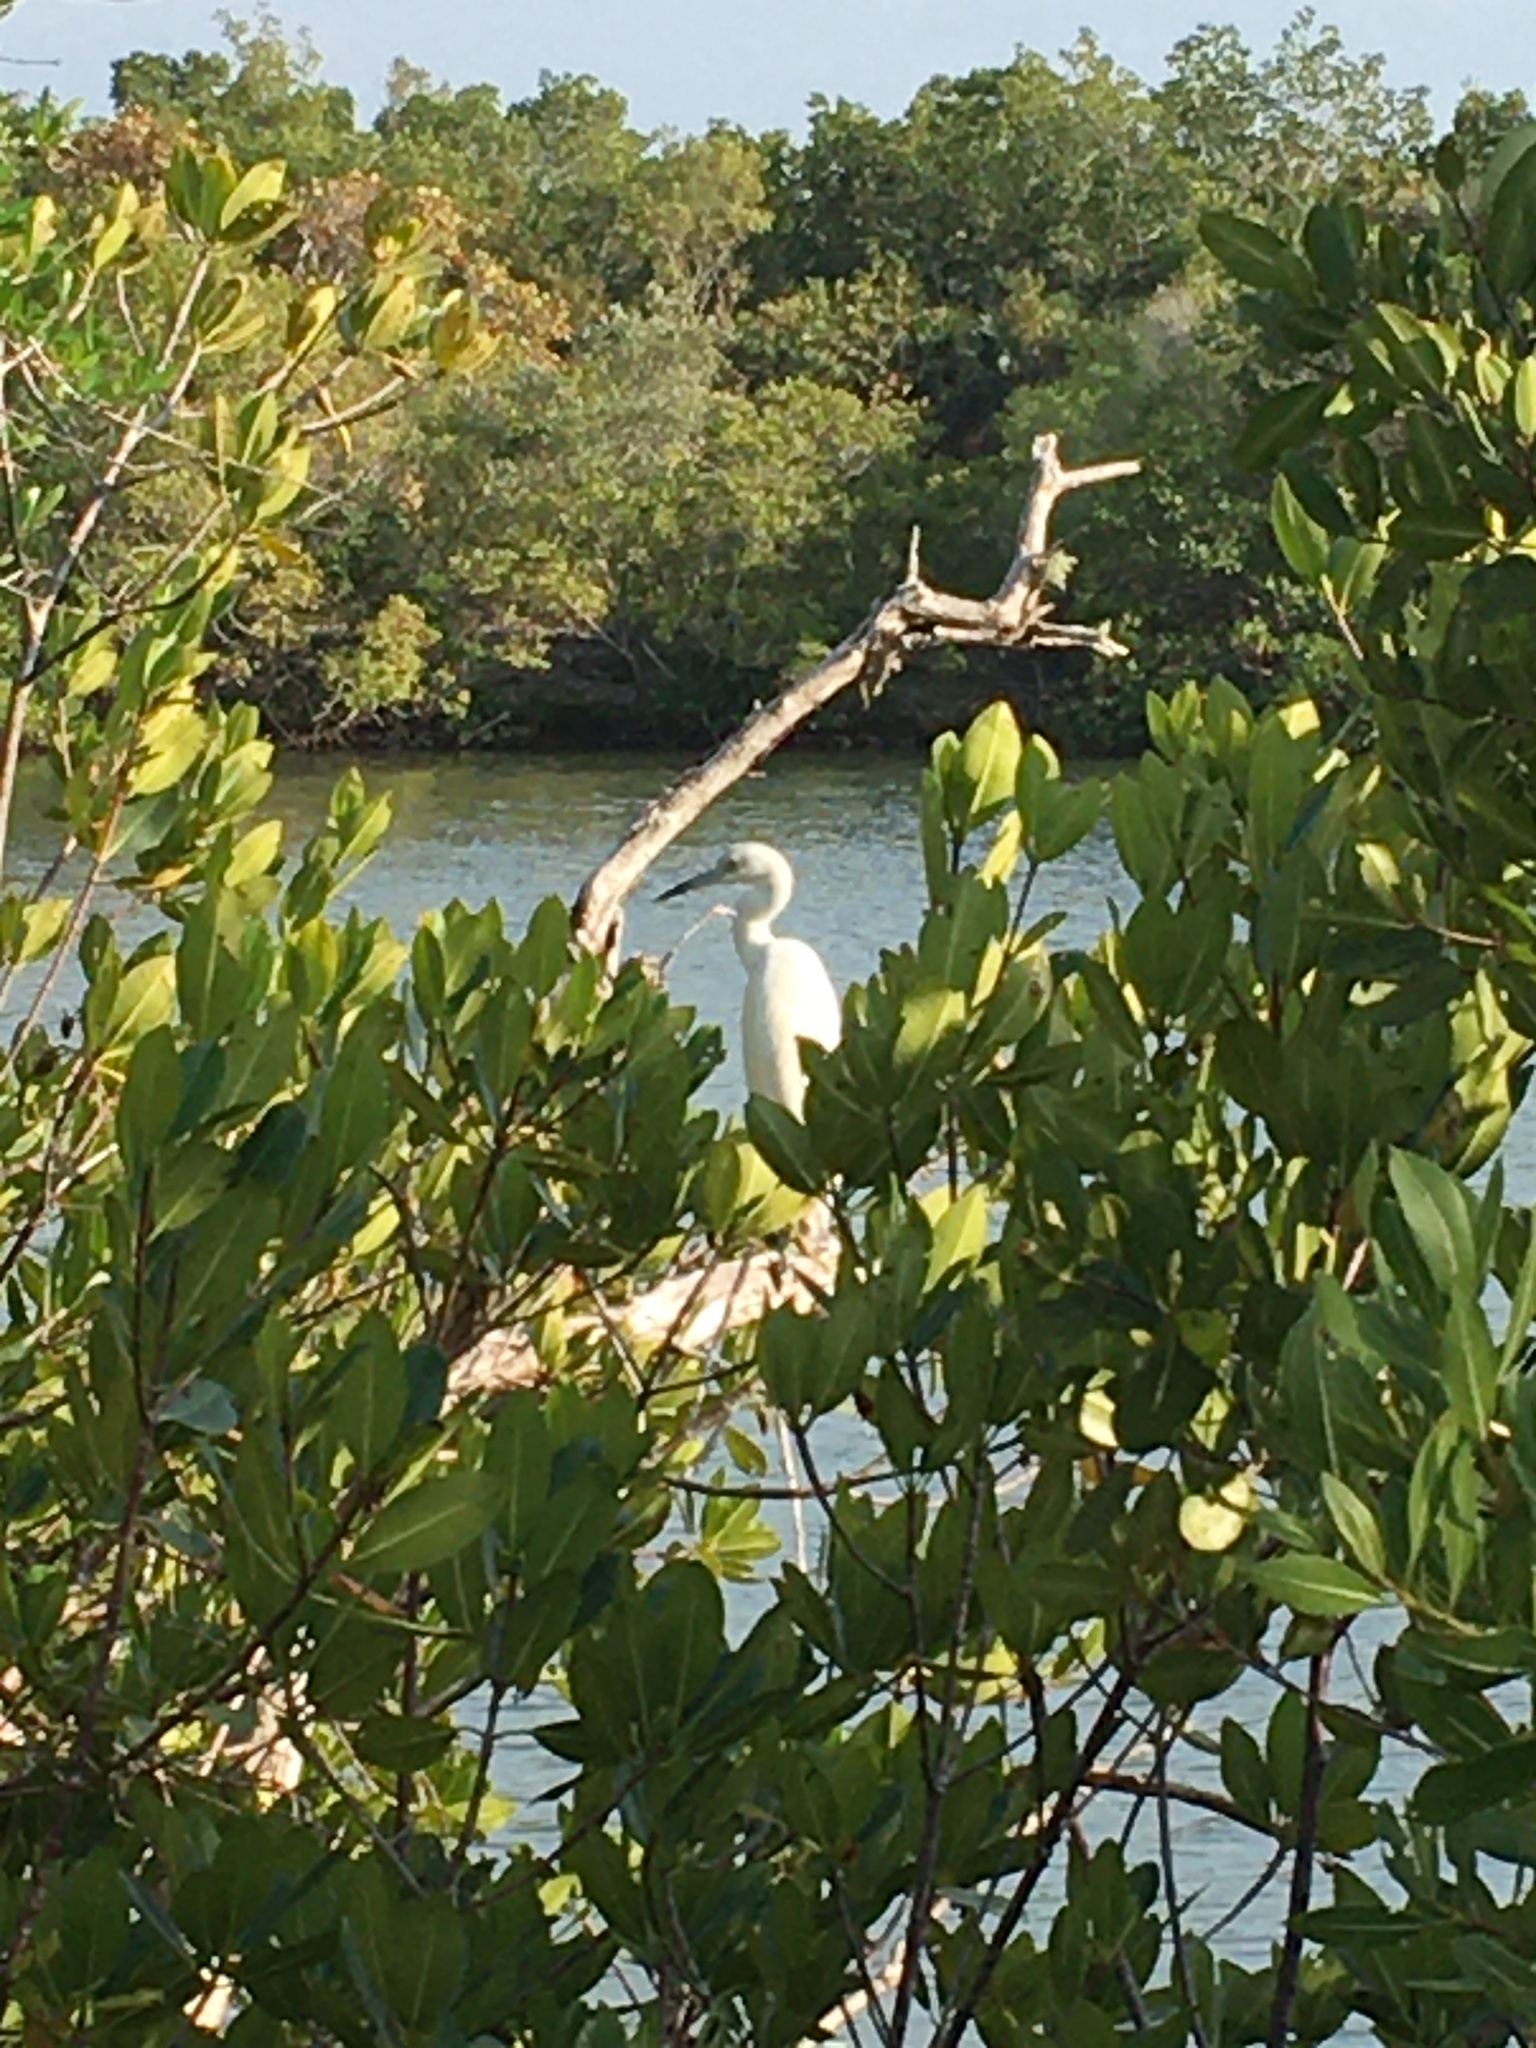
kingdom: Animalia
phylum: Chordata
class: Aves
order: Pelecaniformes
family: Ardeidae
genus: Egretta
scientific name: Egretta caerulea
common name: Little blue heron
